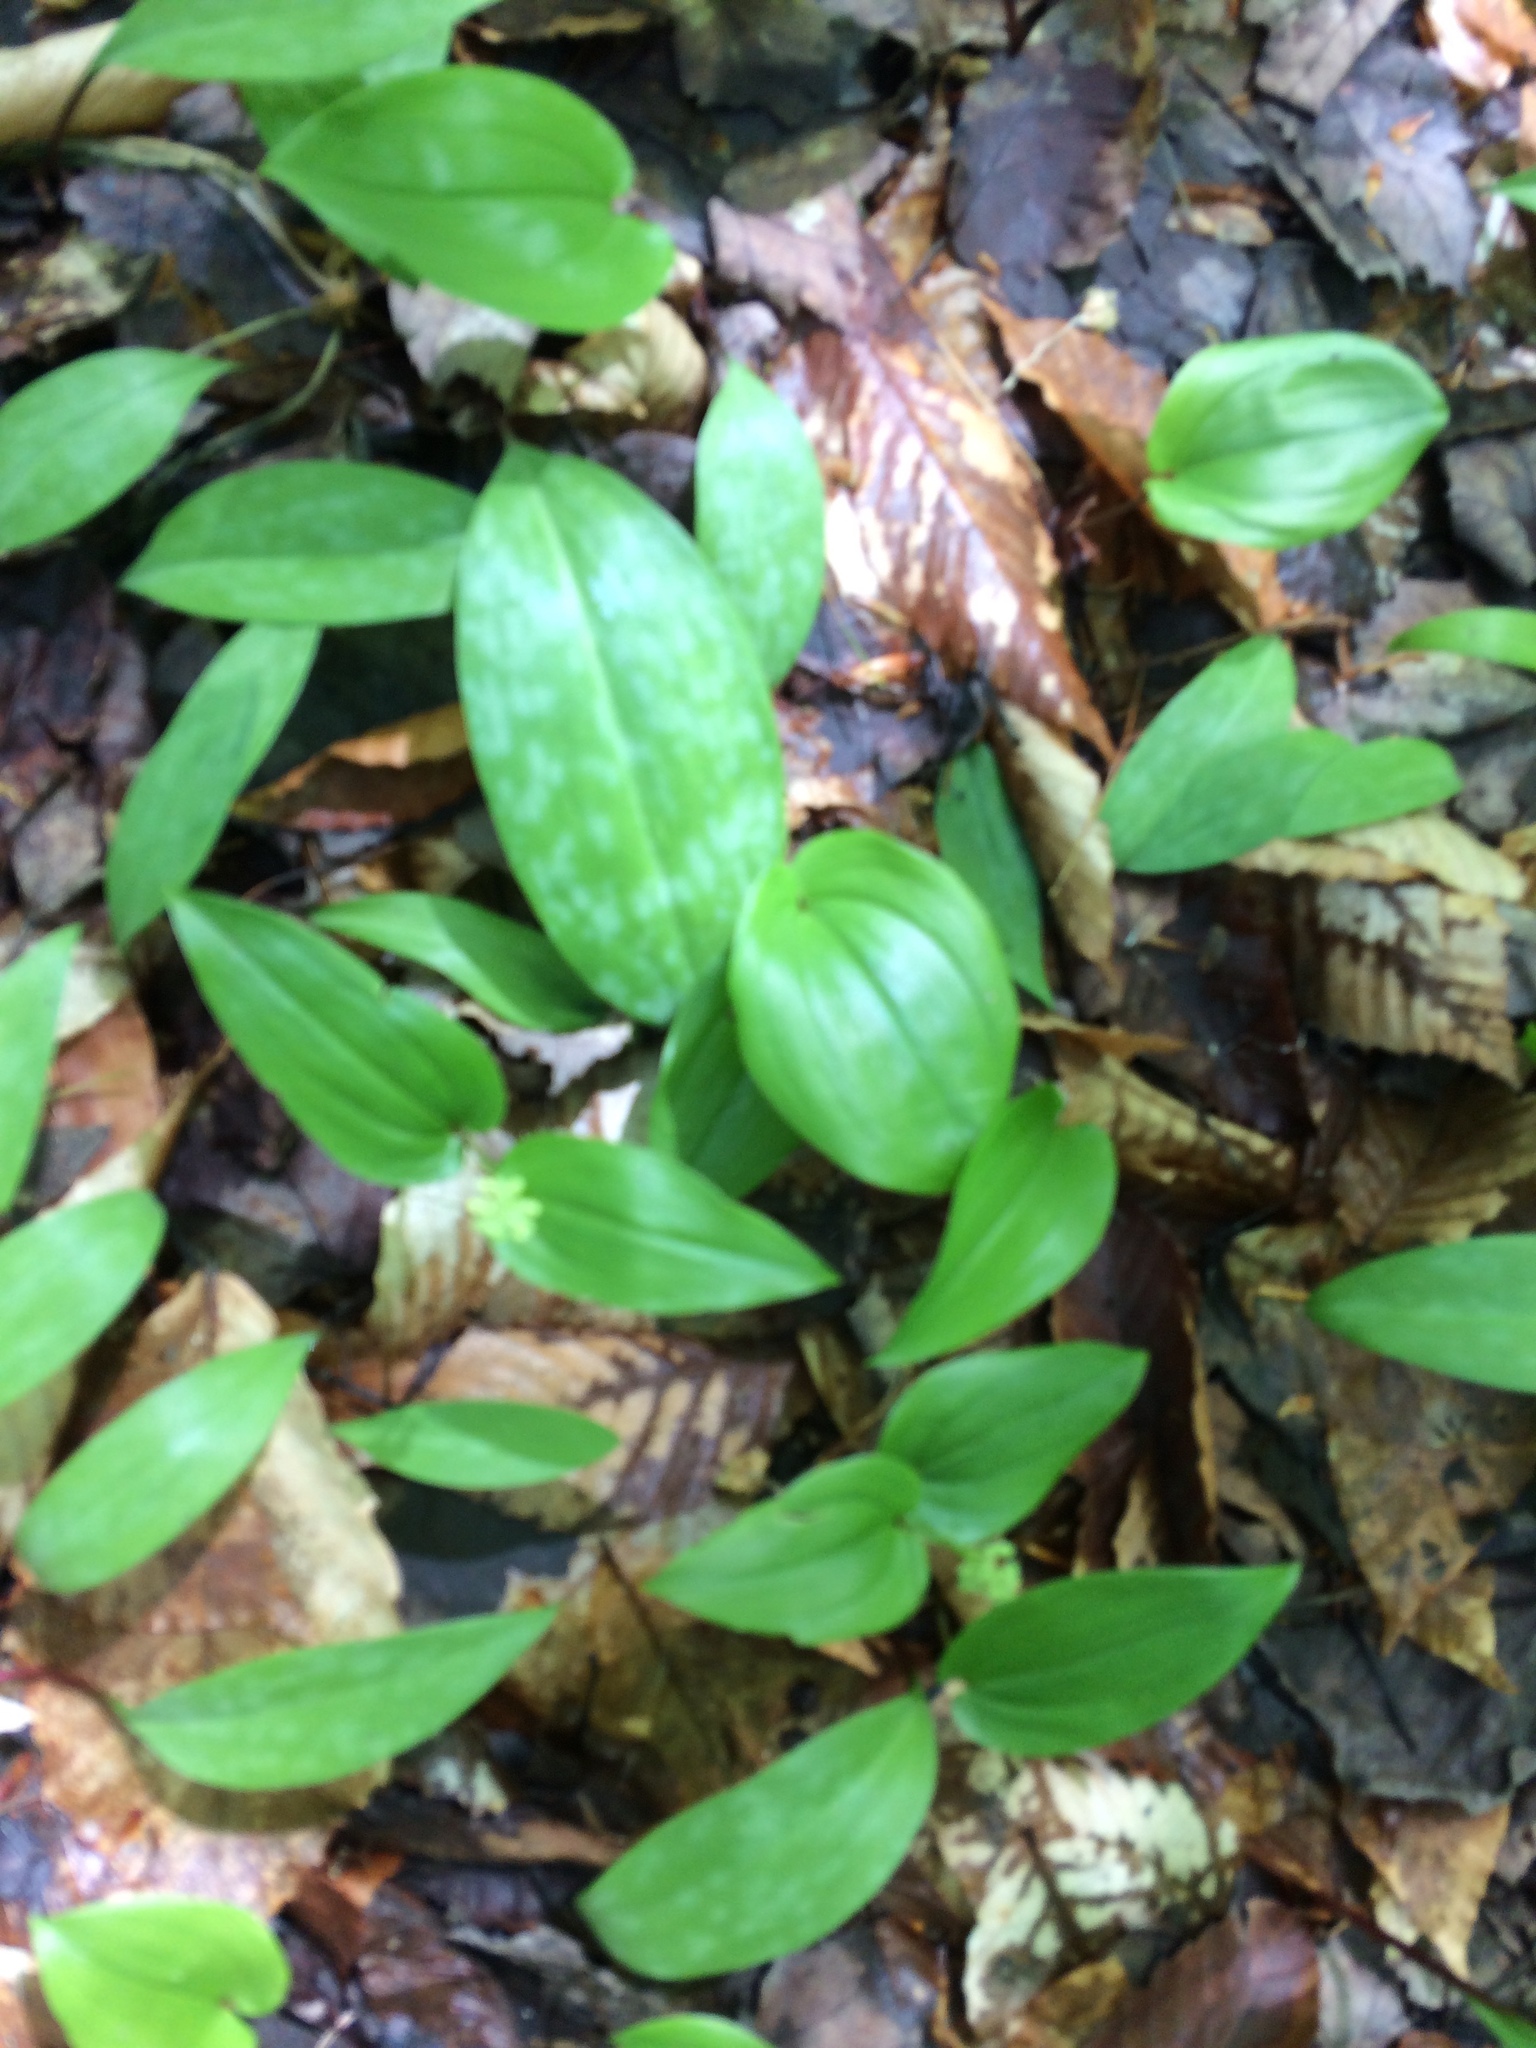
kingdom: Plantae
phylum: Tracheophyta
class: Liliopsida
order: Liliales
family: Liliaceae
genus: Erythronium
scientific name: Erythronium americanum
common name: Yellow adder's-tongue
